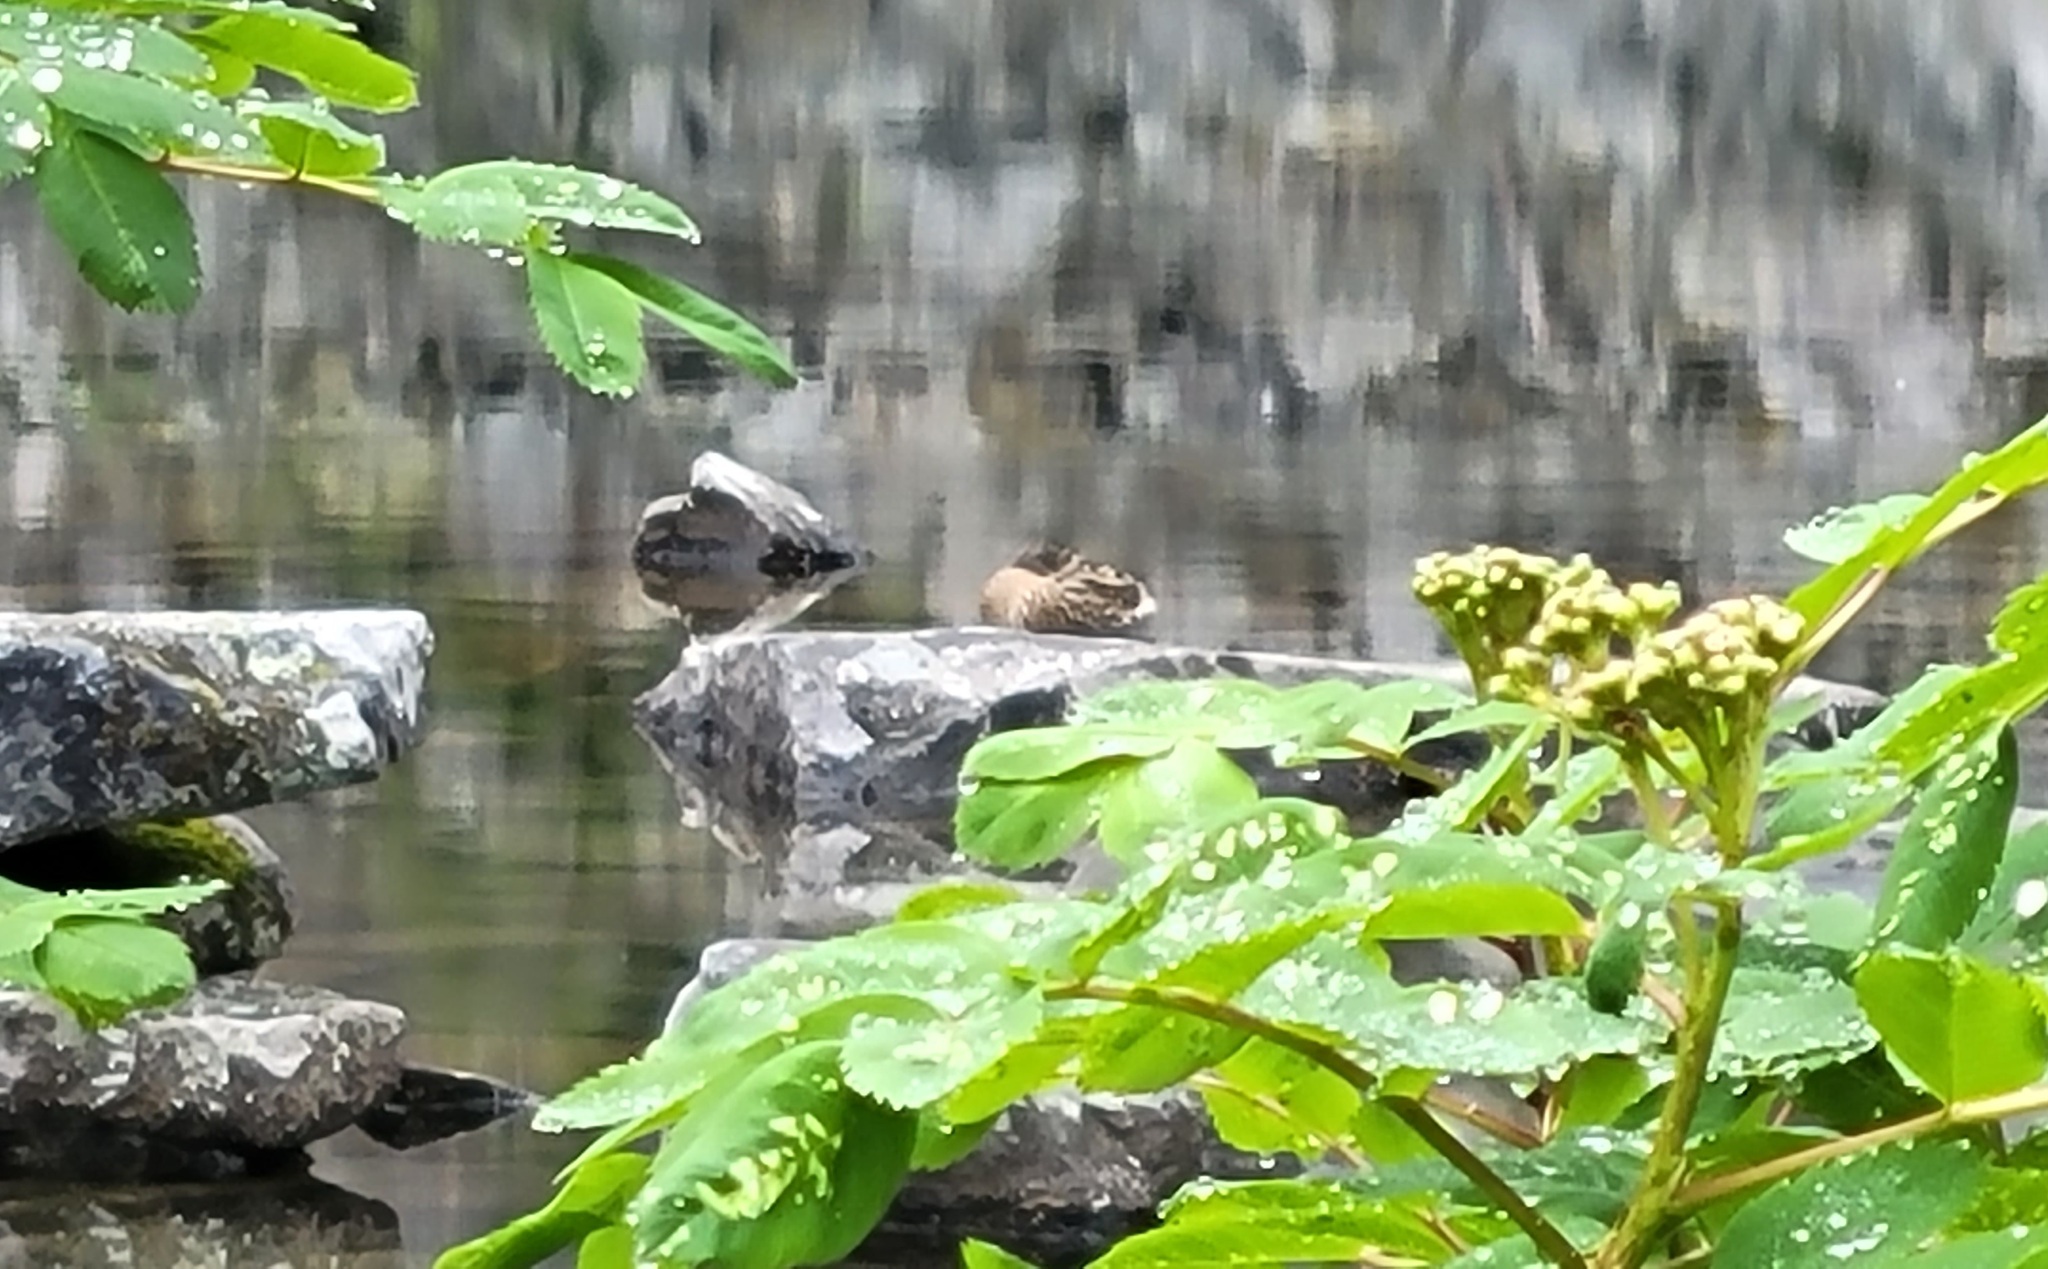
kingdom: Animalia
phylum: Chordata
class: Aves
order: Anseriformes
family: Anatidae
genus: Anas
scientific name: Anas platyrhynchos
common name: Mallard
